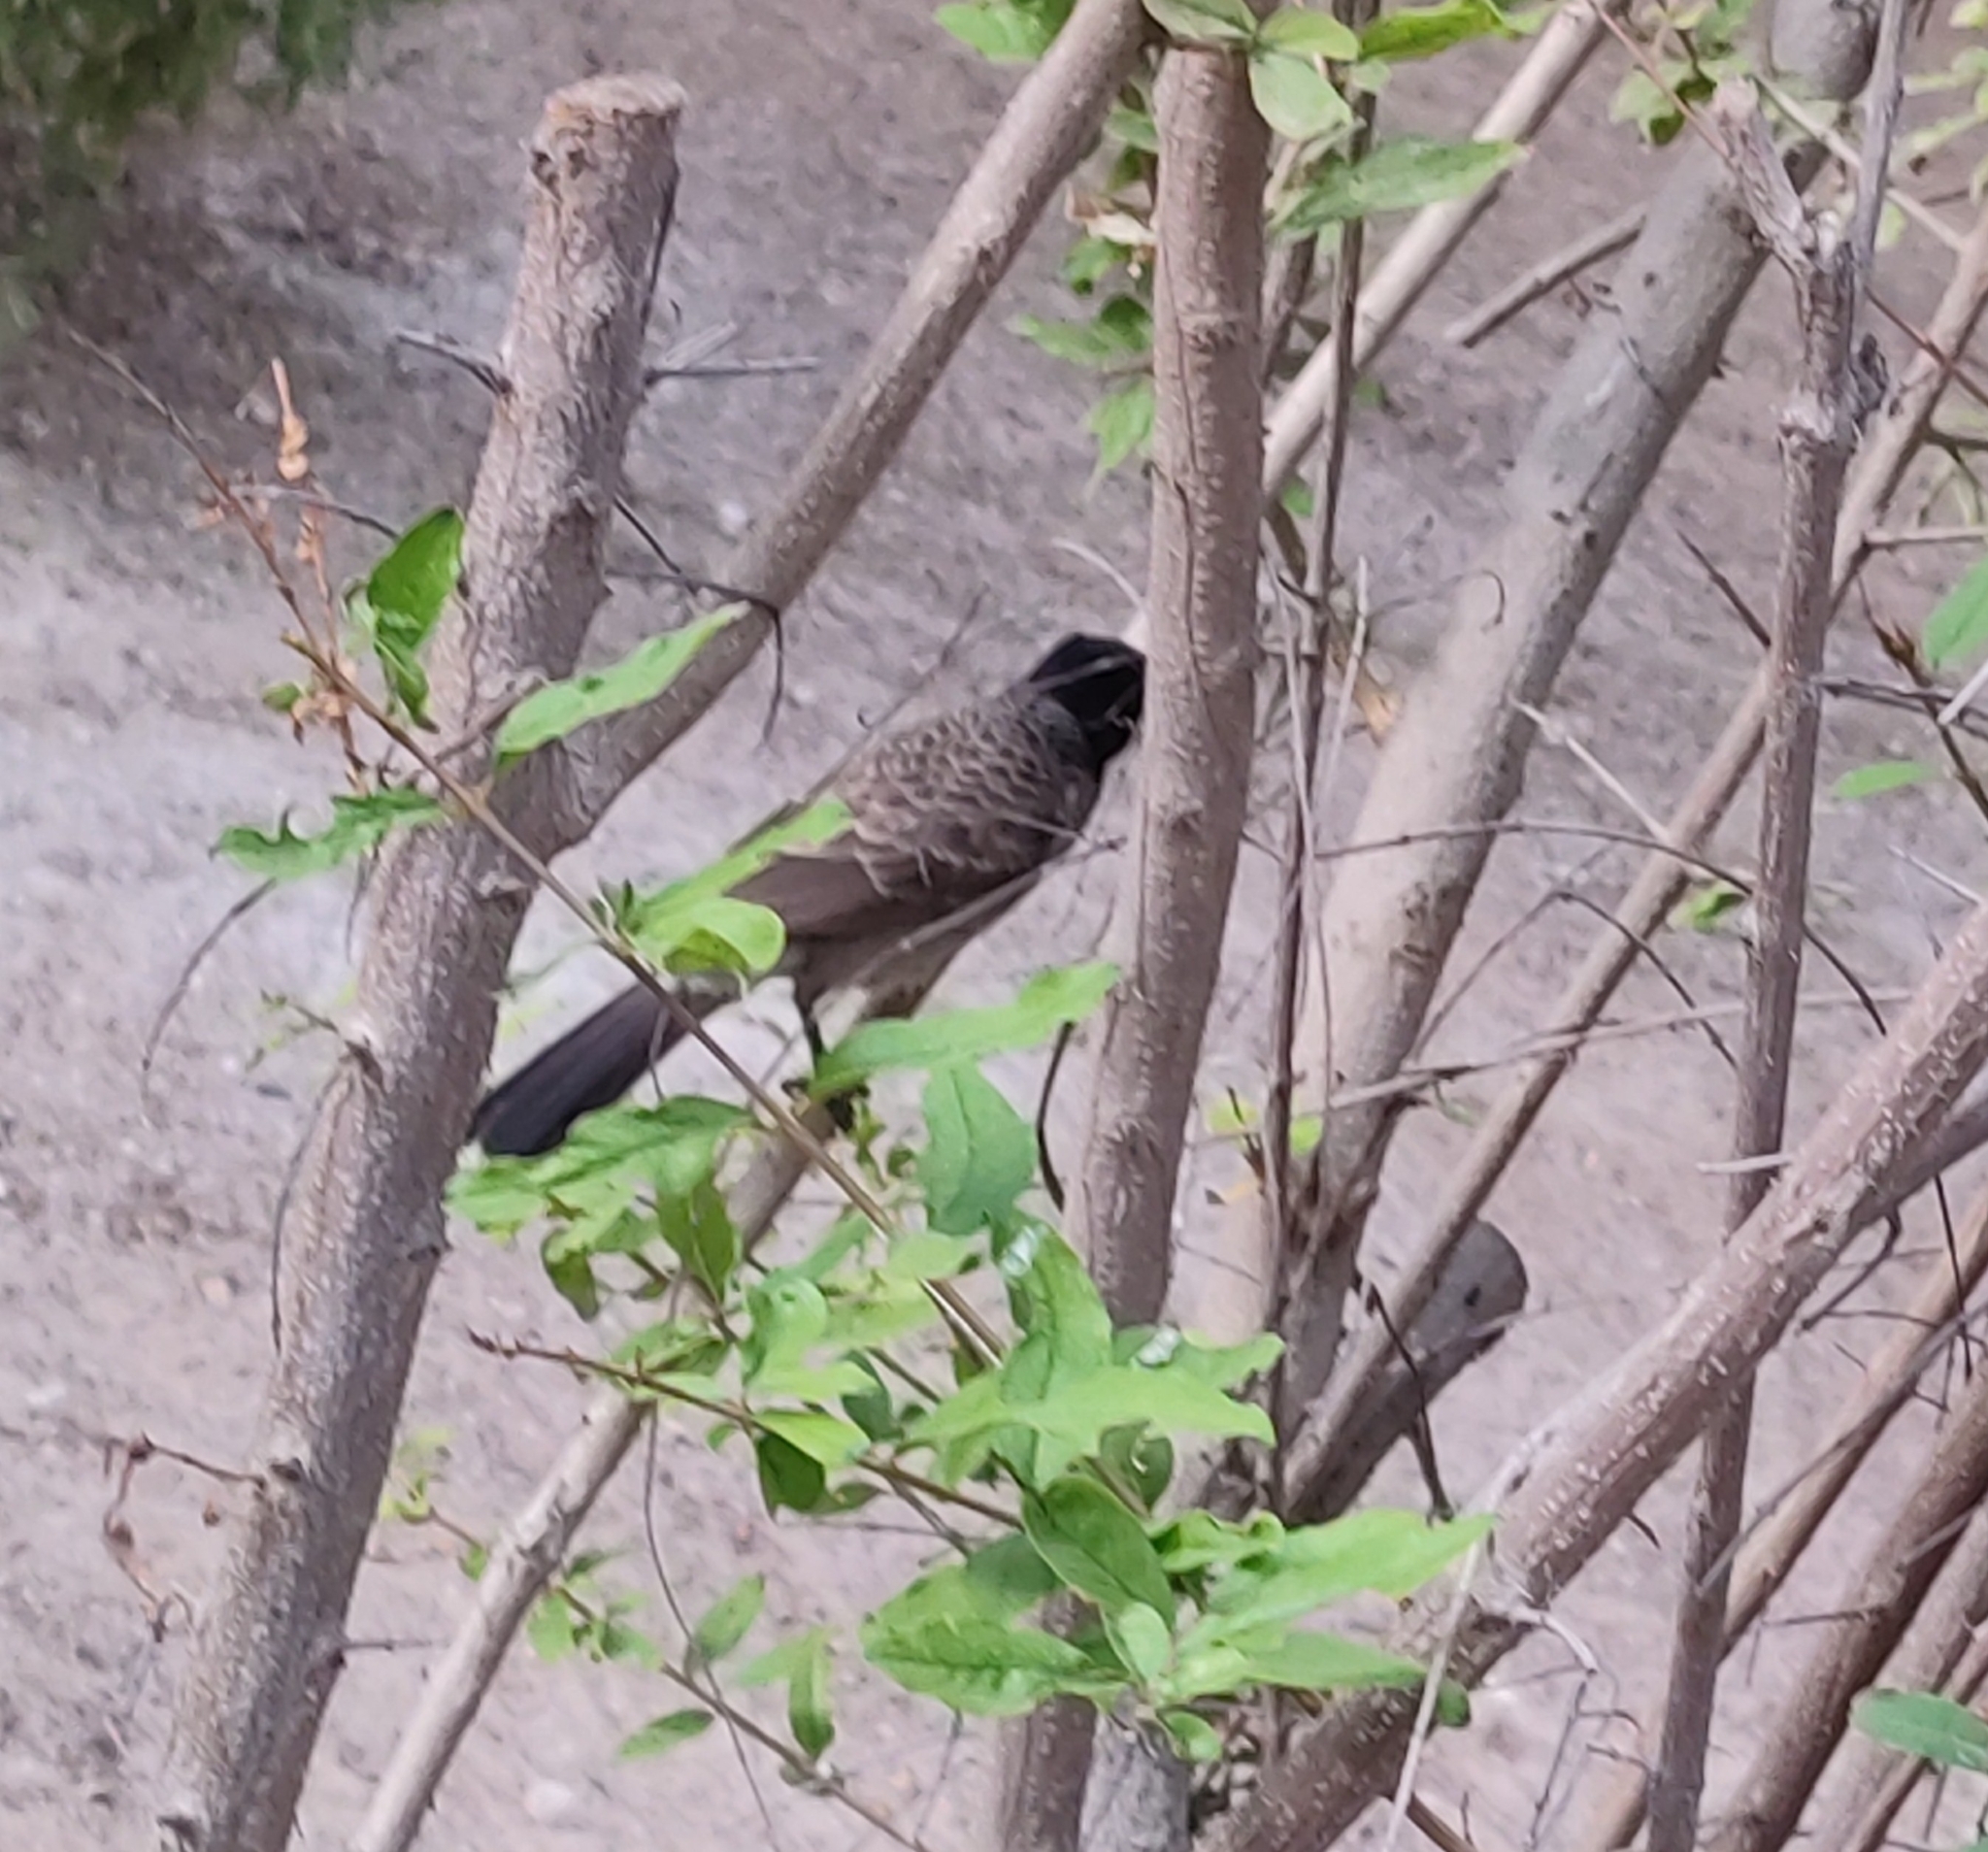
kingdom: Animalia
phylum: Chordata
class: Aves
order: Passeriformes
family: Pycnonotidae
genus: Pycnonotus
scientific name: Pycnonotus cafer
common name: Red-vented bulbul
